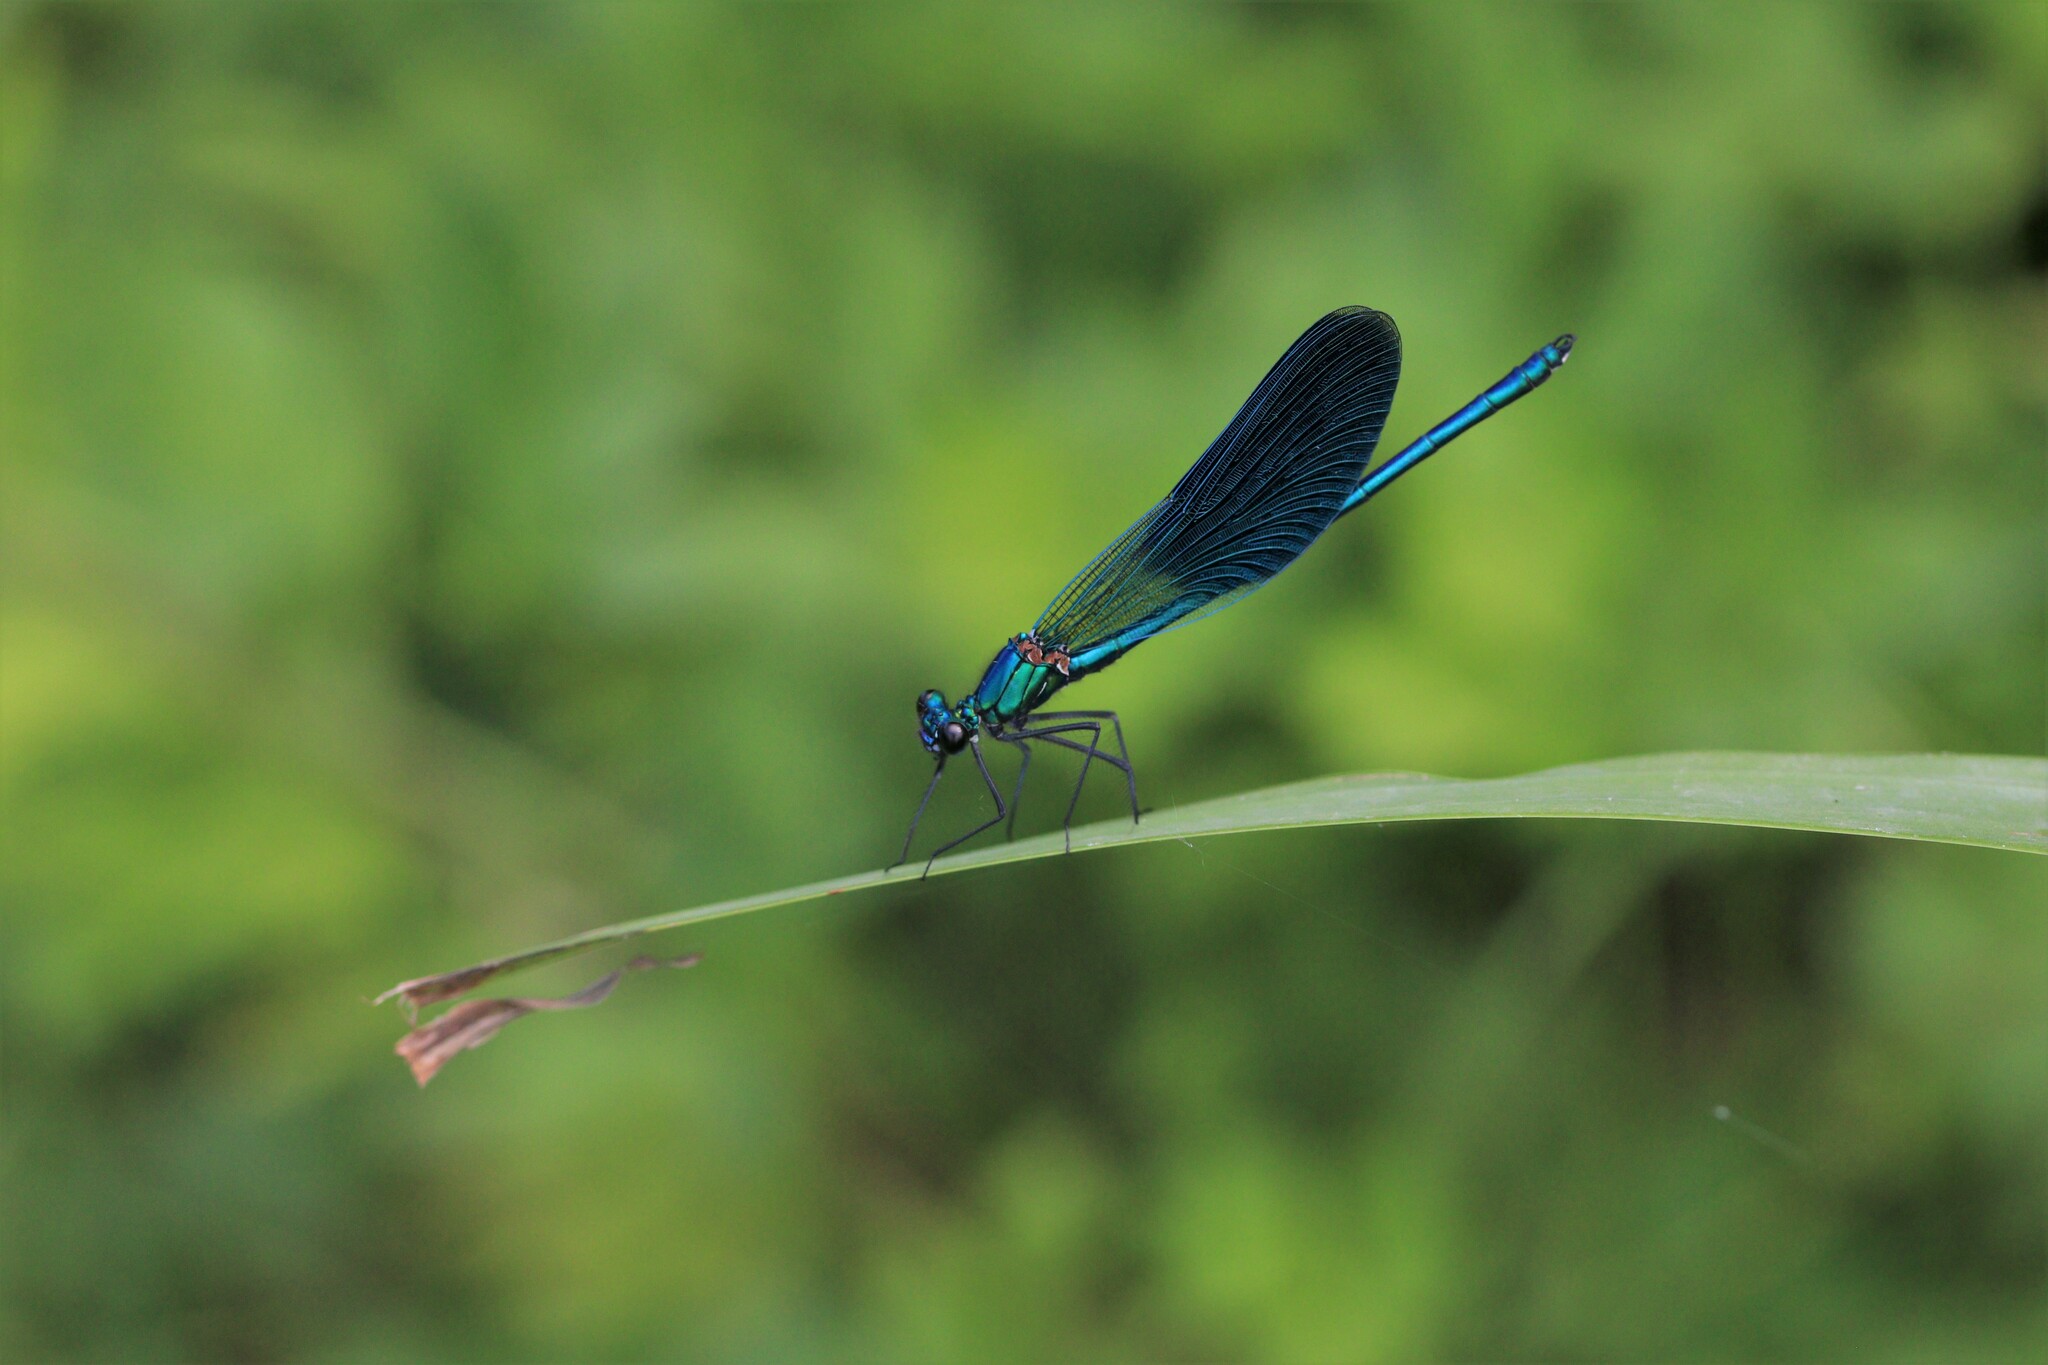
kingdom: Animalia
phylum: Arthropoda
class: Insecta
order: Odonata
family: Calopterygidae
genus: Calopteryx
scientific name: Calopteryx splendens
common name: Banded demoiselle
